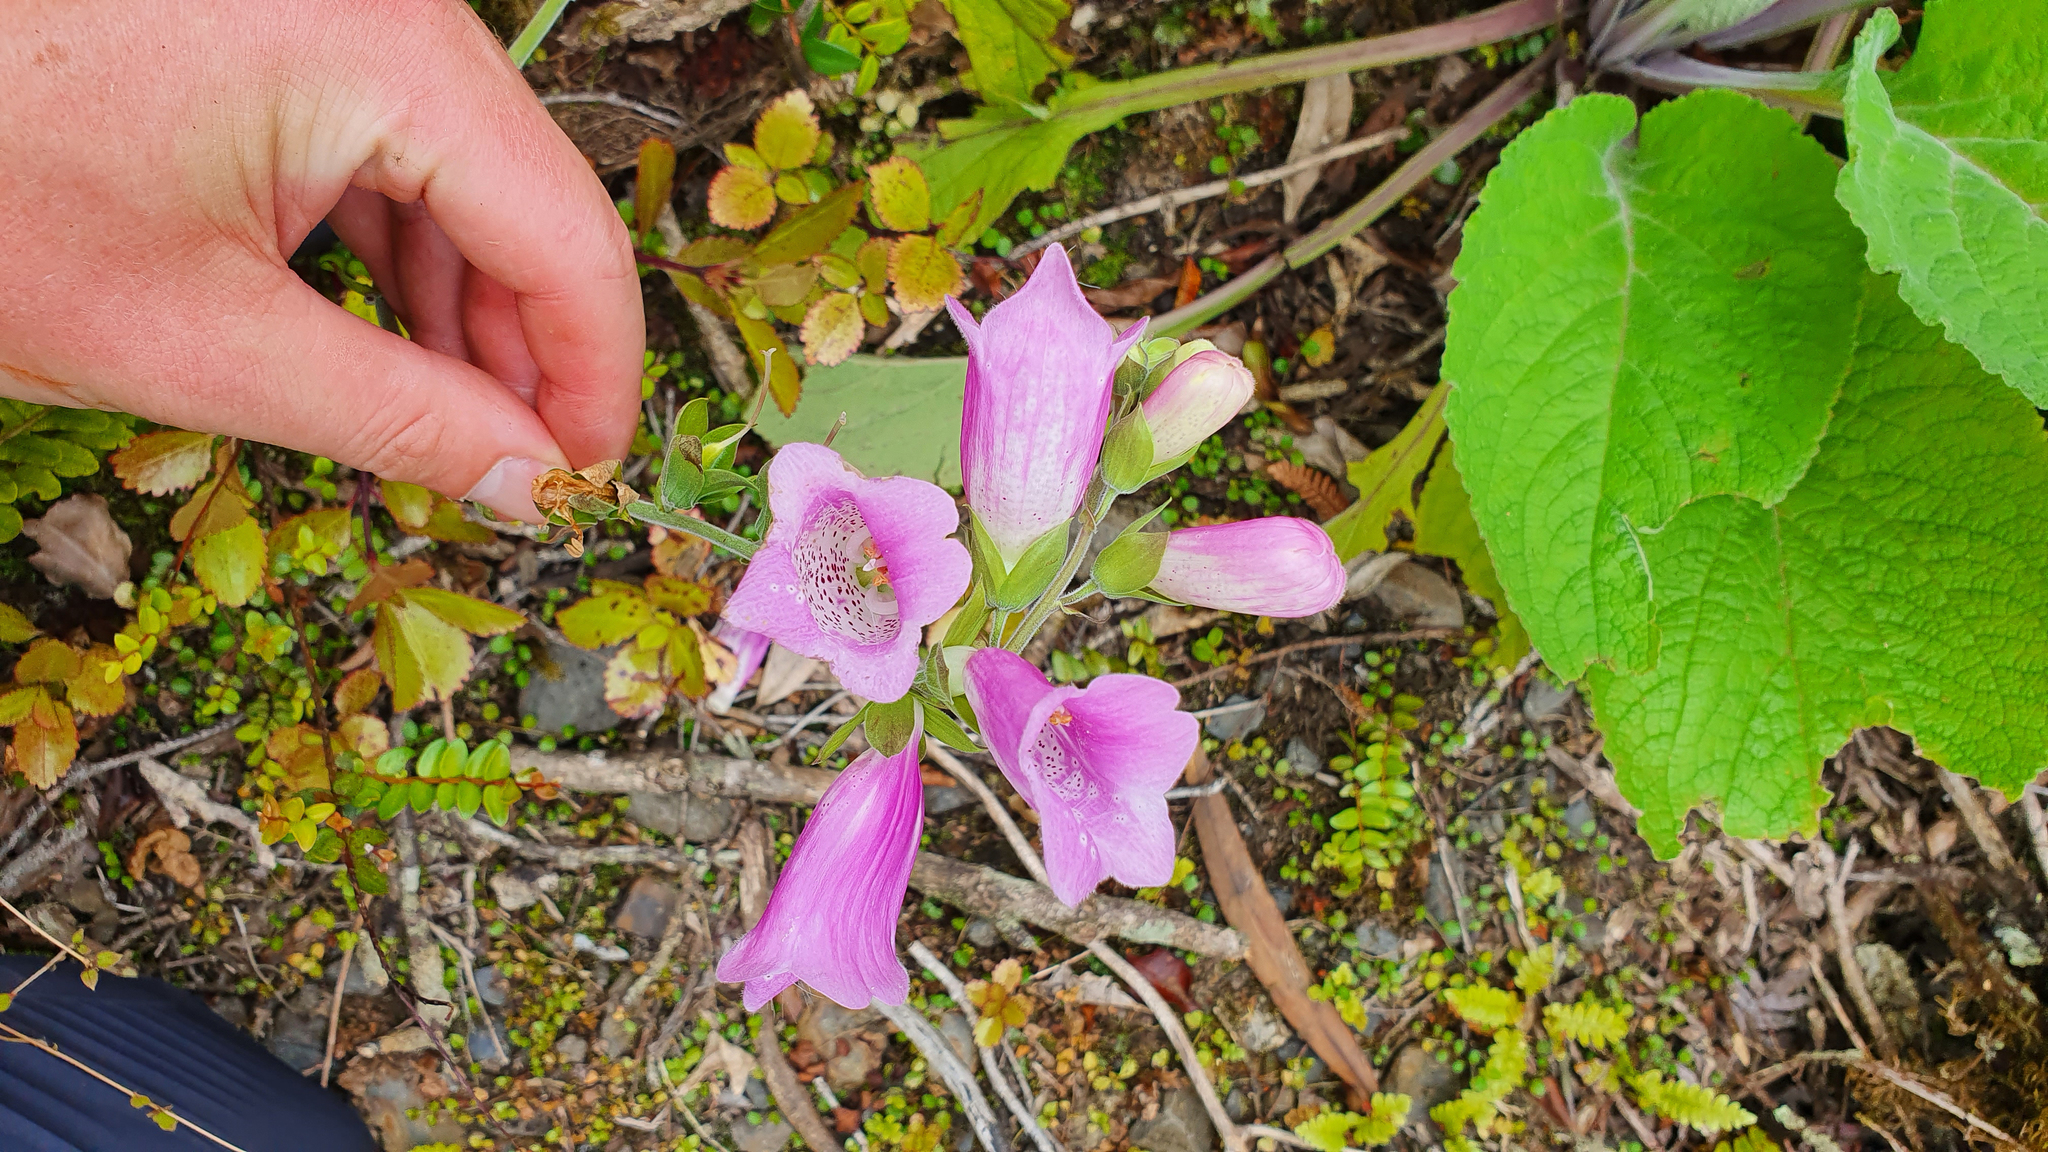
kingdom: Plantae
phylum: Tracheophyta
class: Magnoliopsida
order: Lamiales
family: Plantaginaceae
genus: Digitalis
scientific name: Digitalis purpurea
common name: Foxglove
